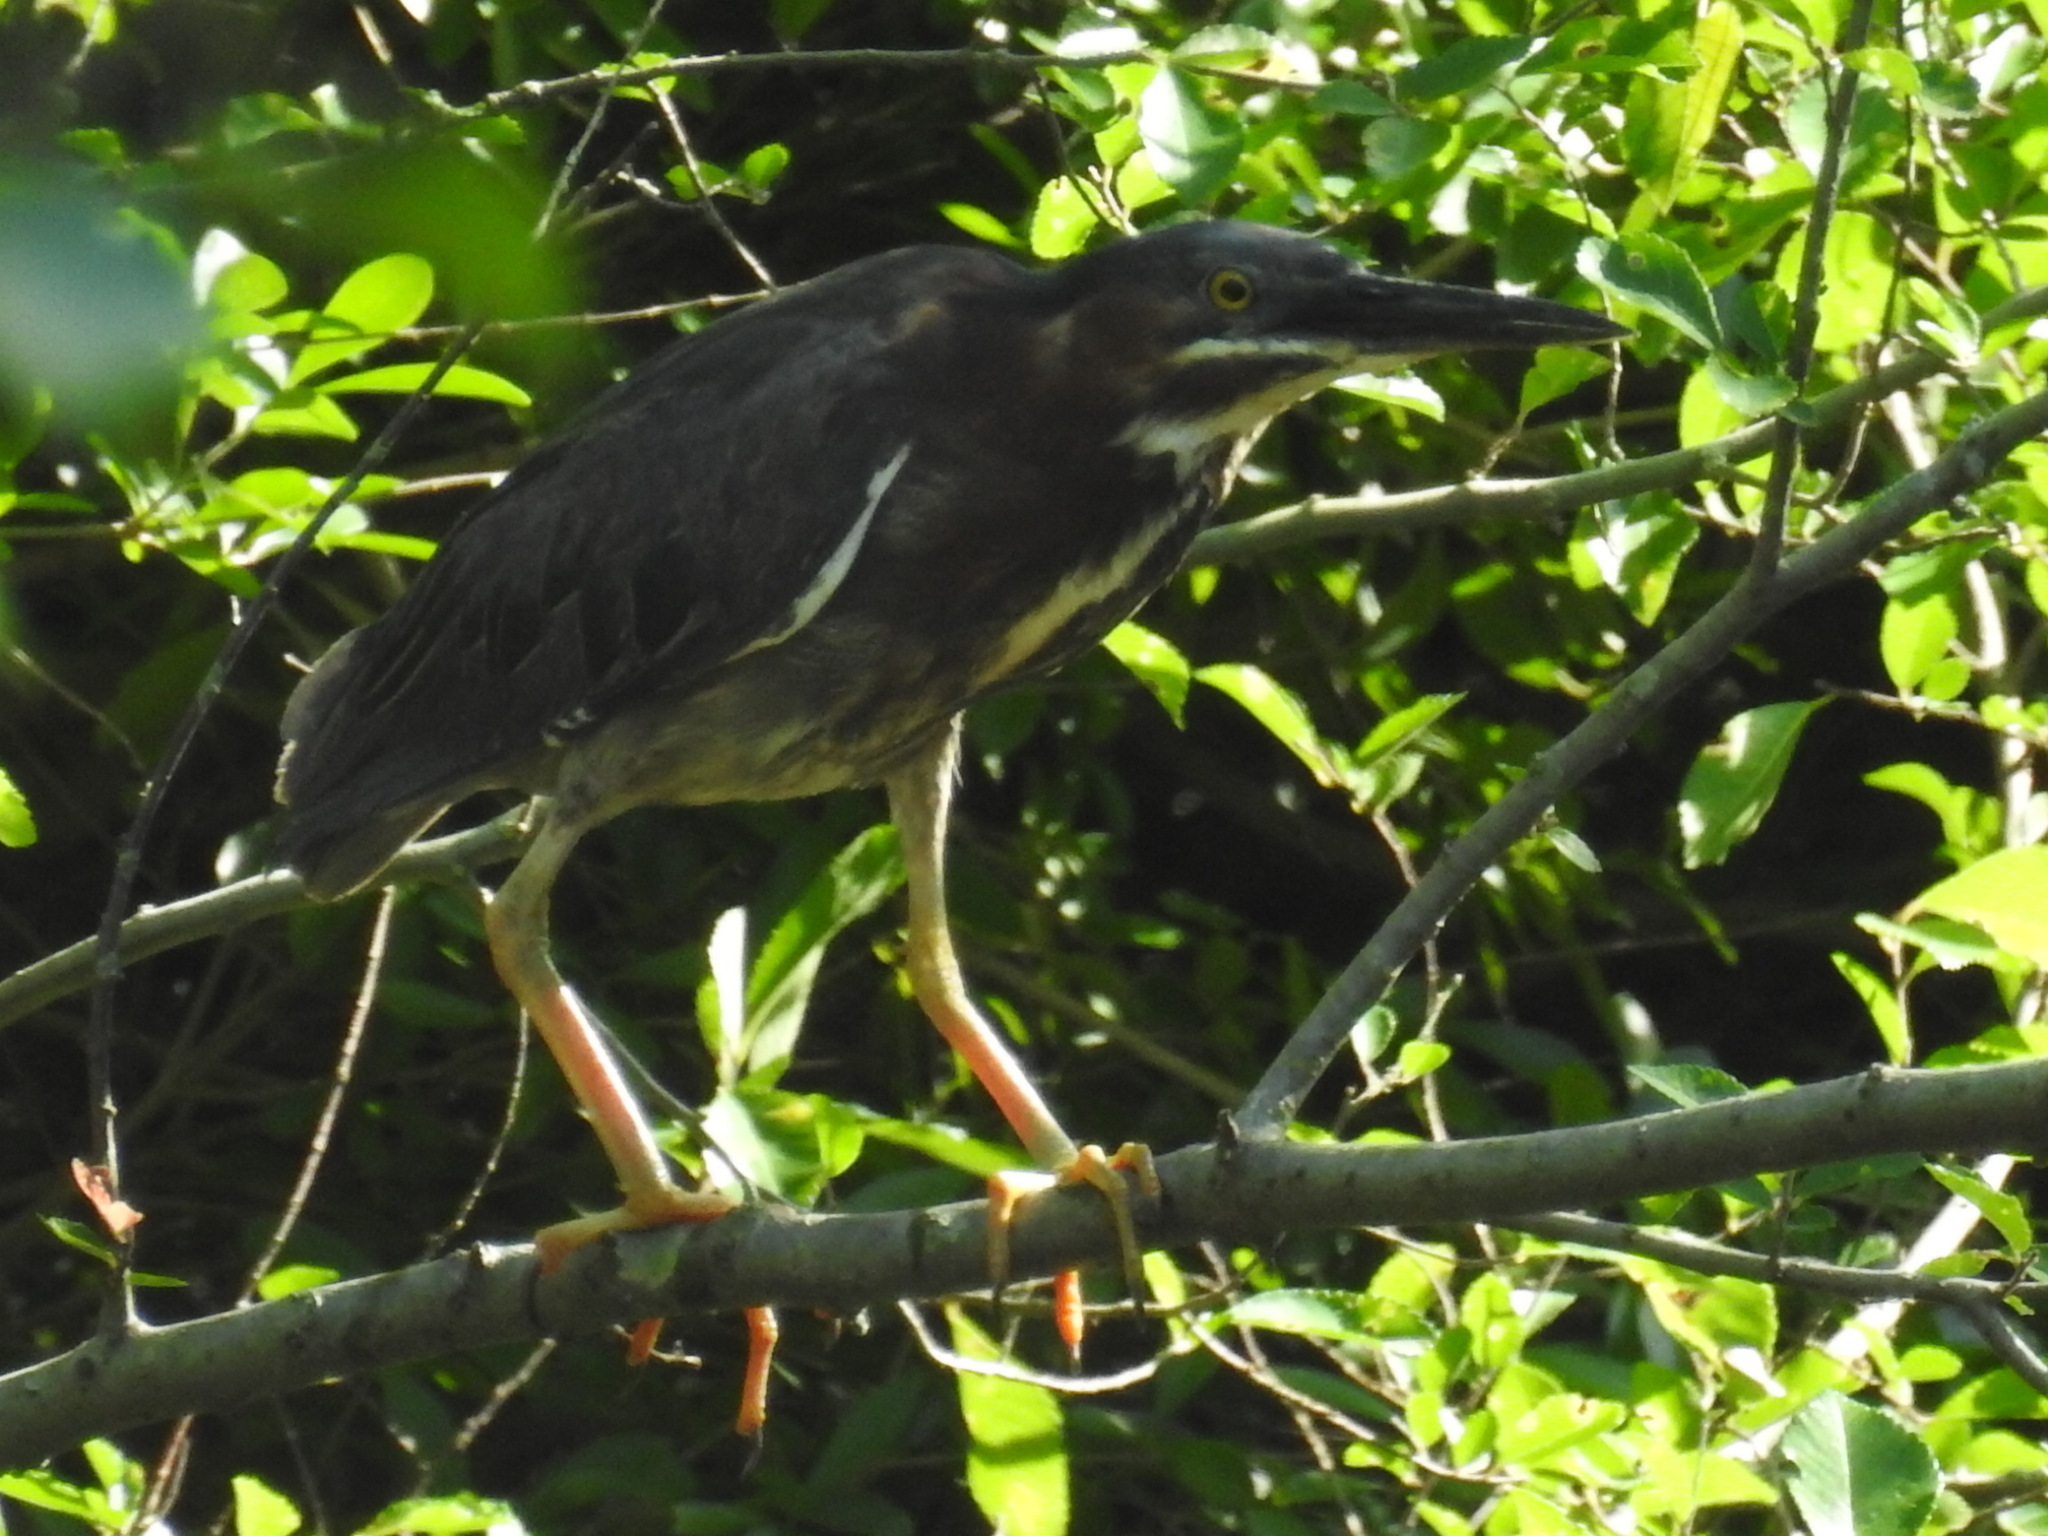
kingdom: Animalia
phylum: Chordata
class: Aves
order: Pelecaniformes
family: Ardeidae
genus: Butorides
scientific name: Butorides virescens
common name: Green heron
